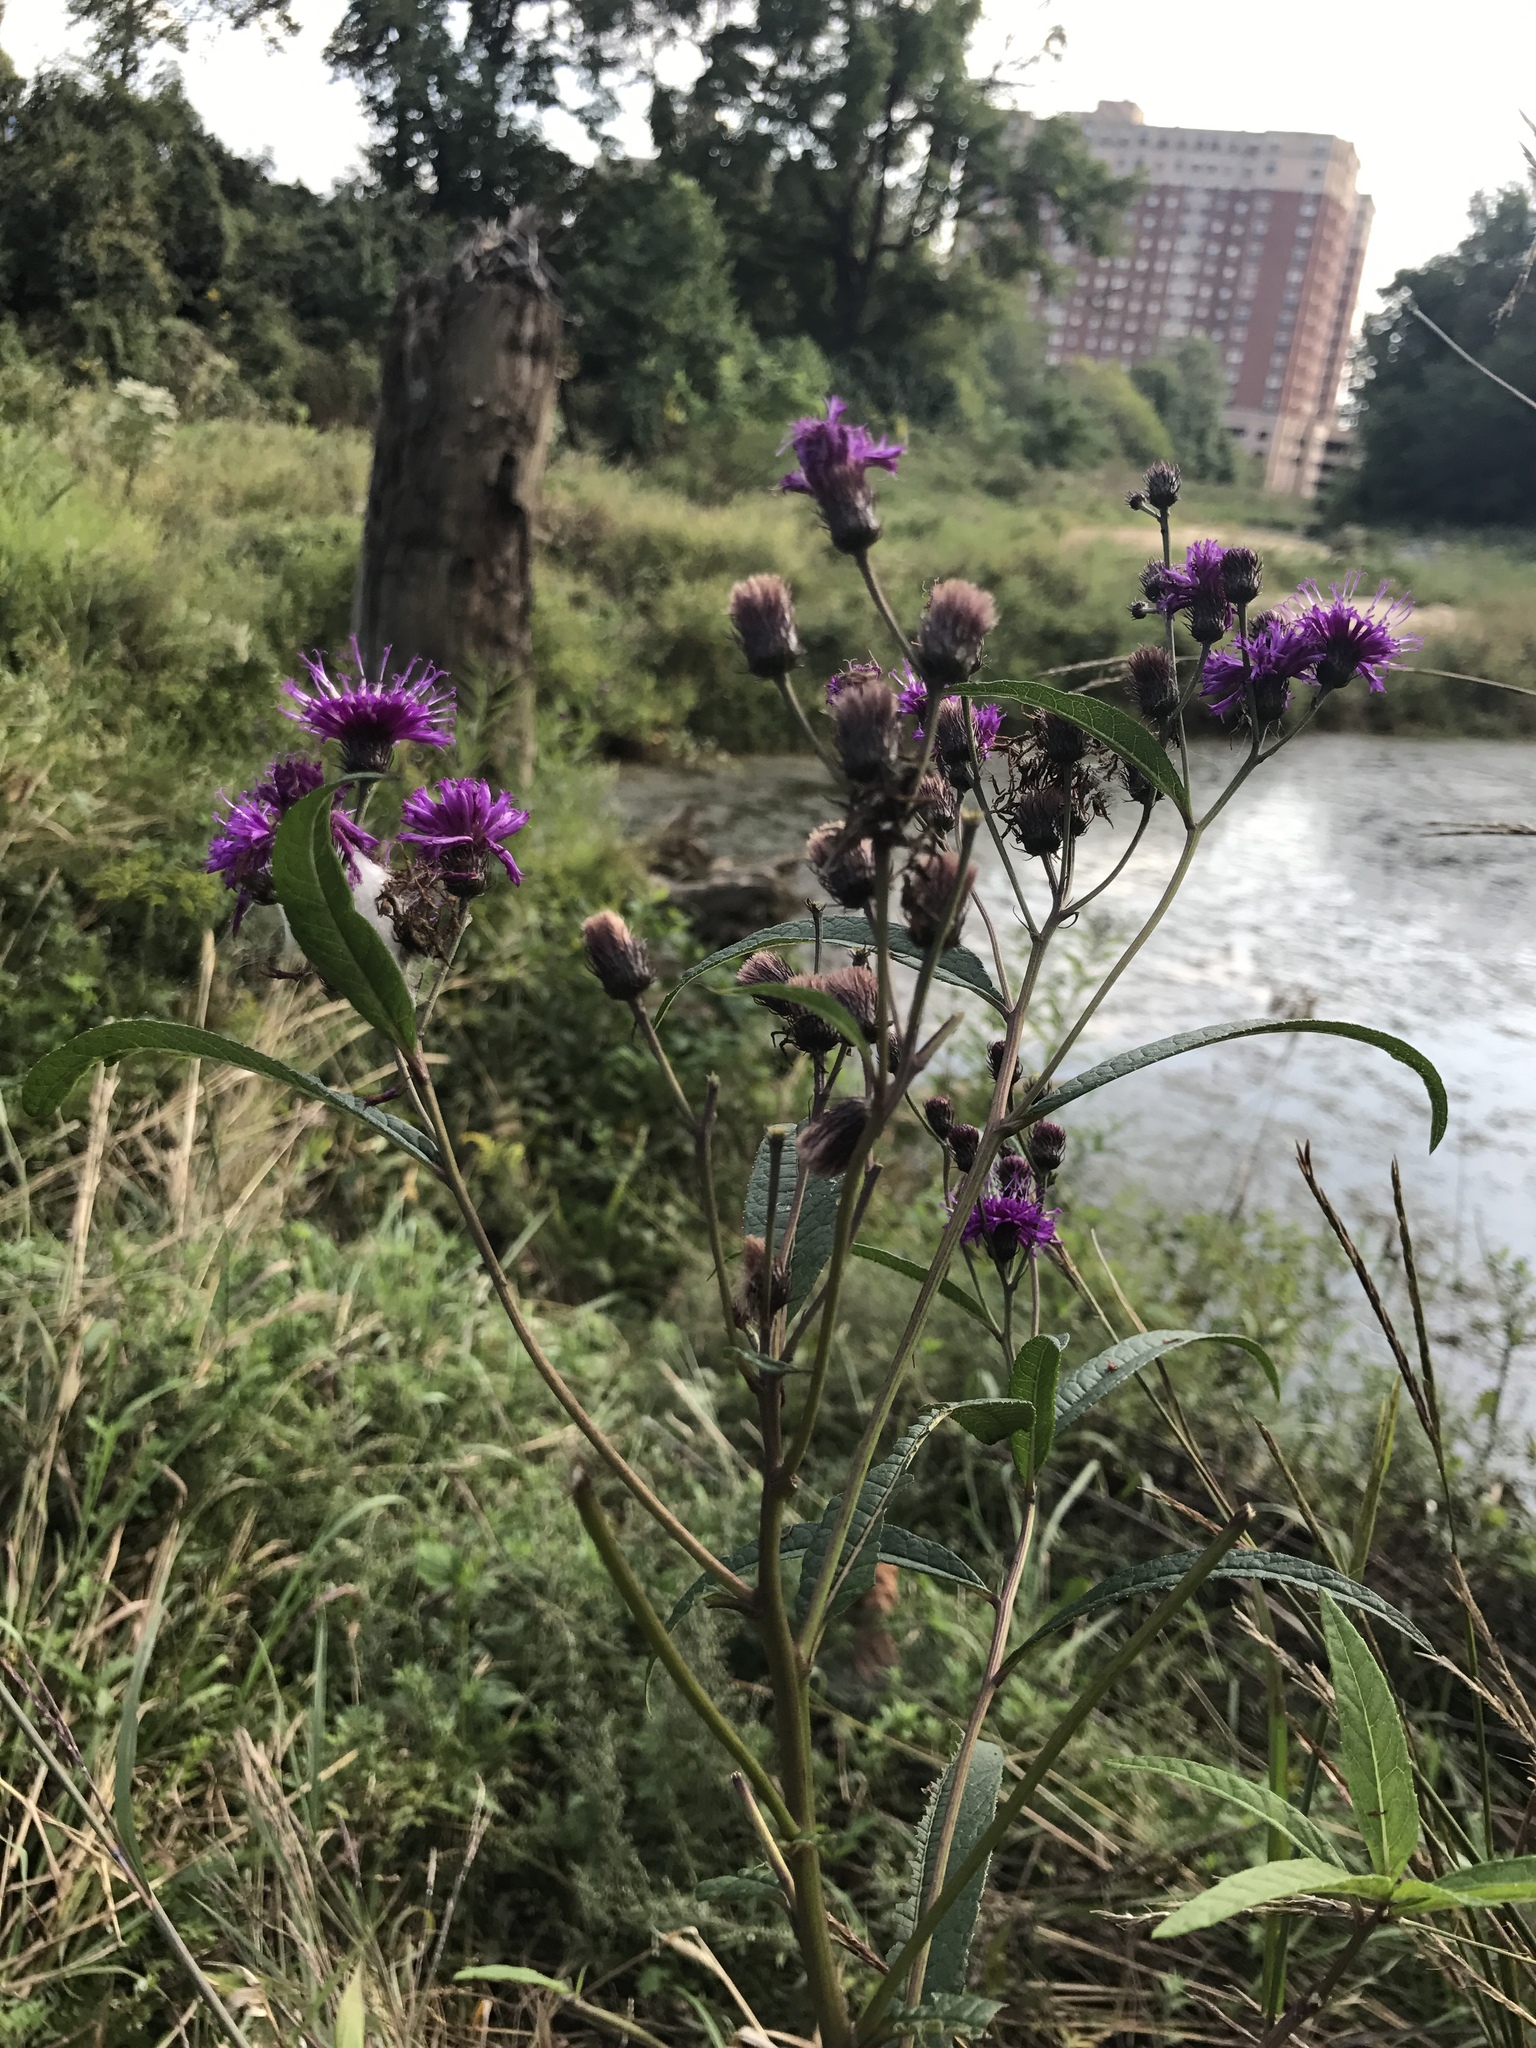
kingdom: Plantae
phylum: Tracheophyta
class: Magnoliopsida
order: Asterales
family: Asteraceae
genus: Vernonia
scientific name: Vernonia noveboracensis
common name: New york ironweed
